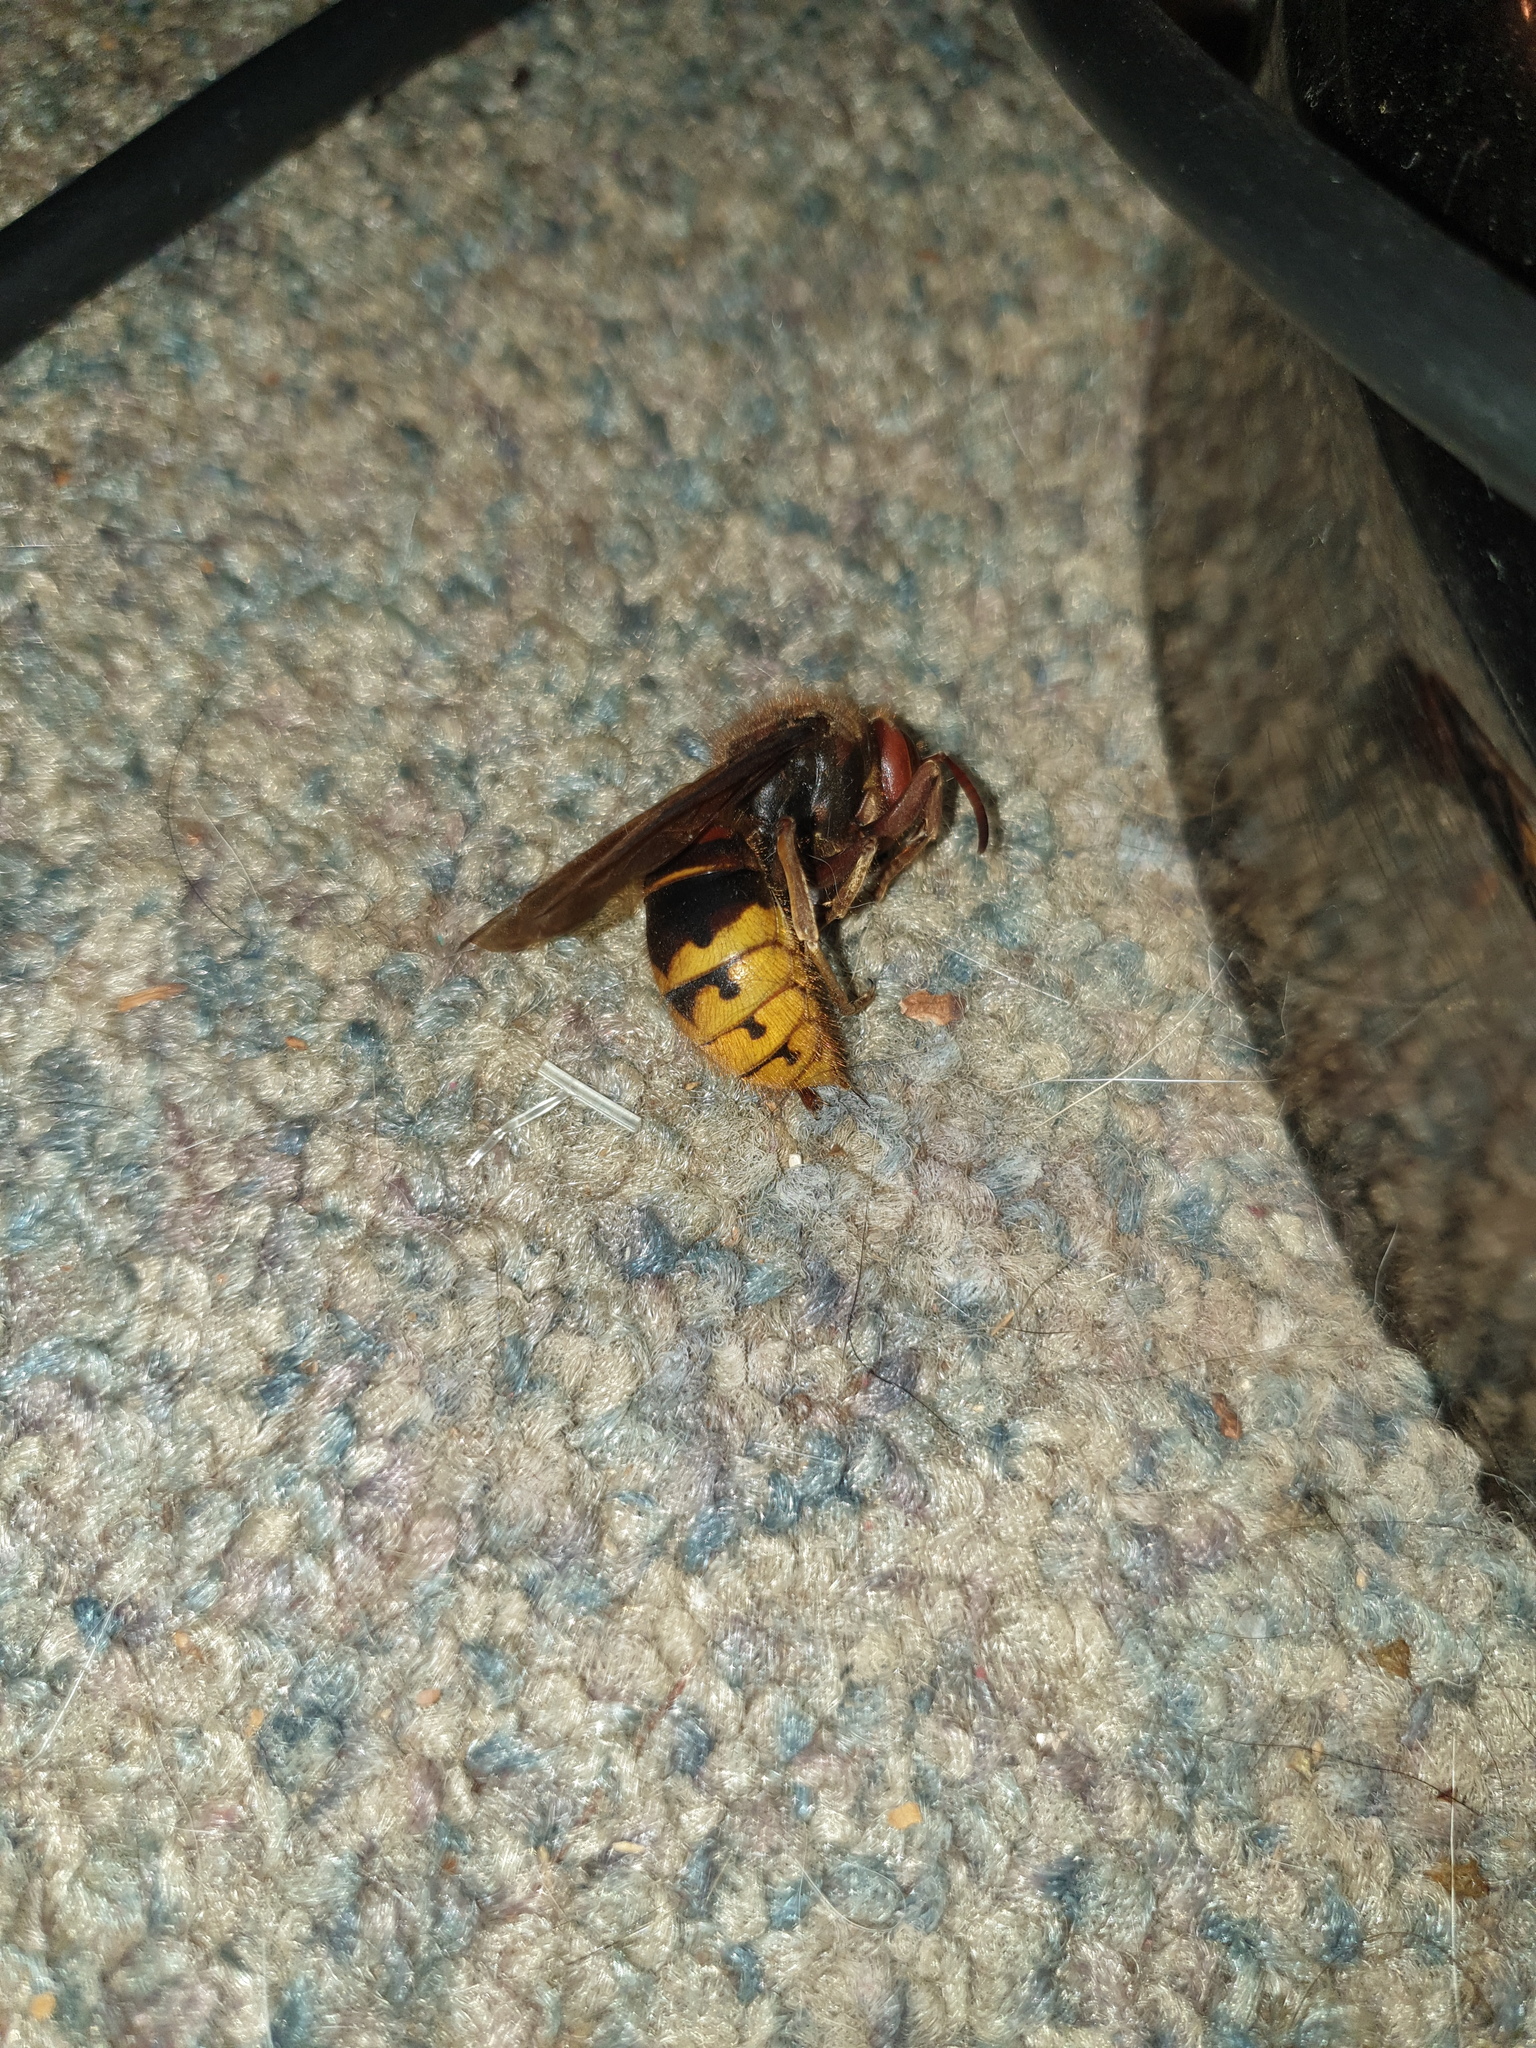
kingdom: Animalia
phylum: Arthropoda
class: Insecta
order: Hymenoptera
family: Vespidae
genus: Vespa
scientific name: Vespa crabro
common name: Hornet
